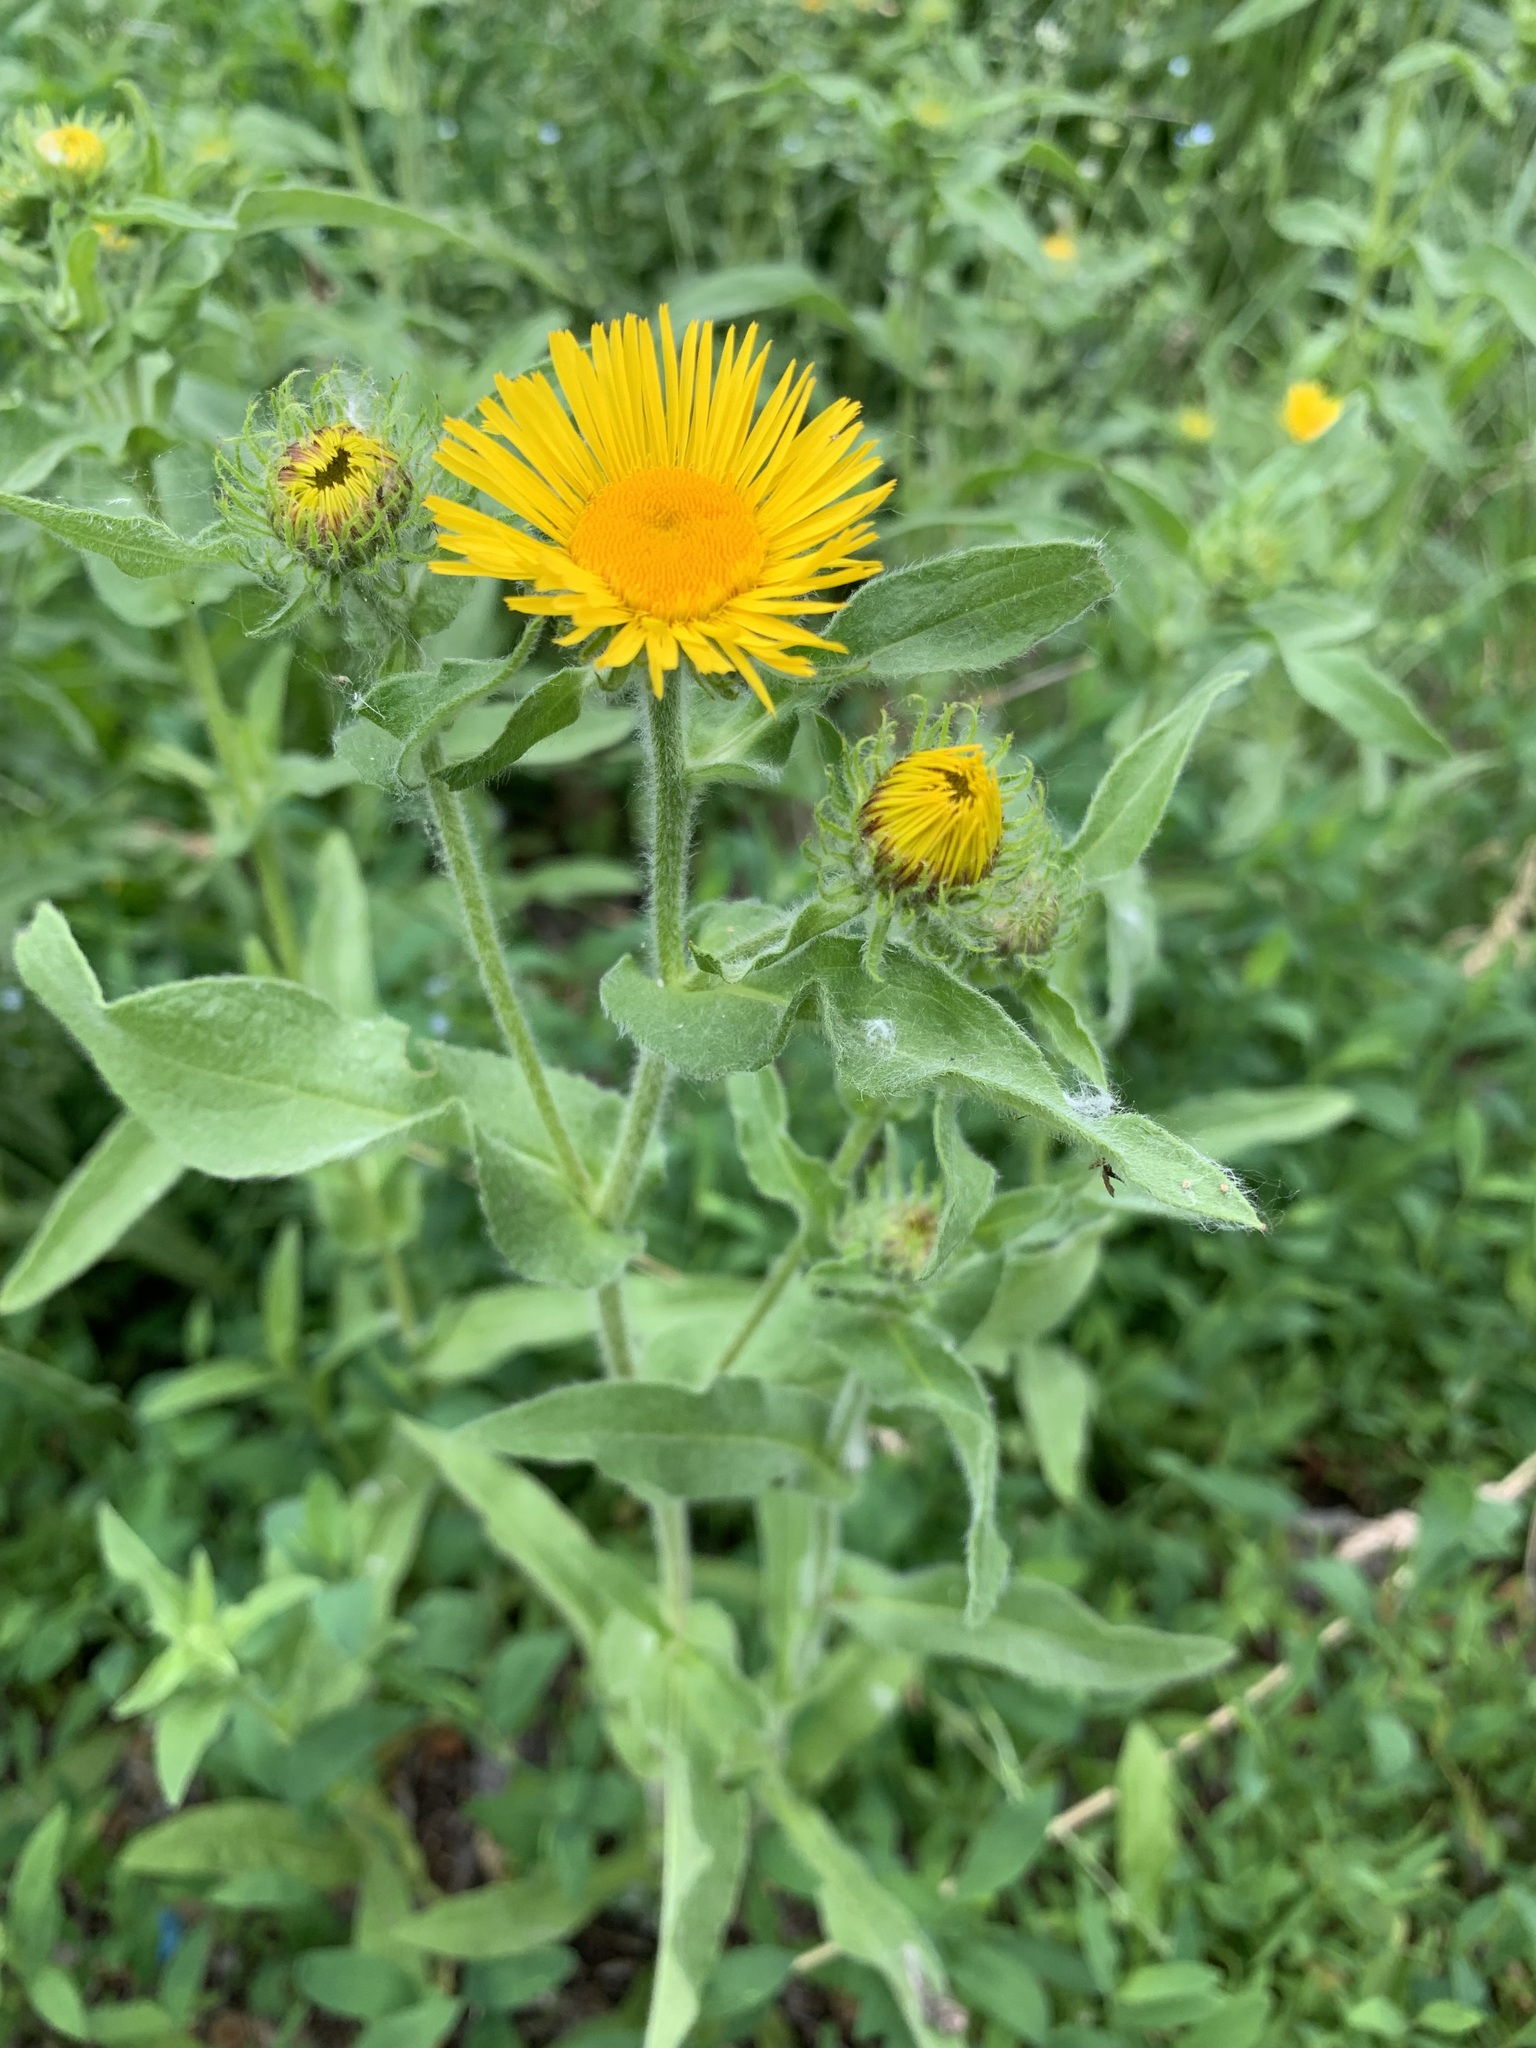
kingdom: Plantae
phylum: Tracheophyta
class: Magnoliopsida
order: Asterales
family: Asteraceae
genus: Pentanema
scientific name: Pentanema britannicum
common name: British elecampane
